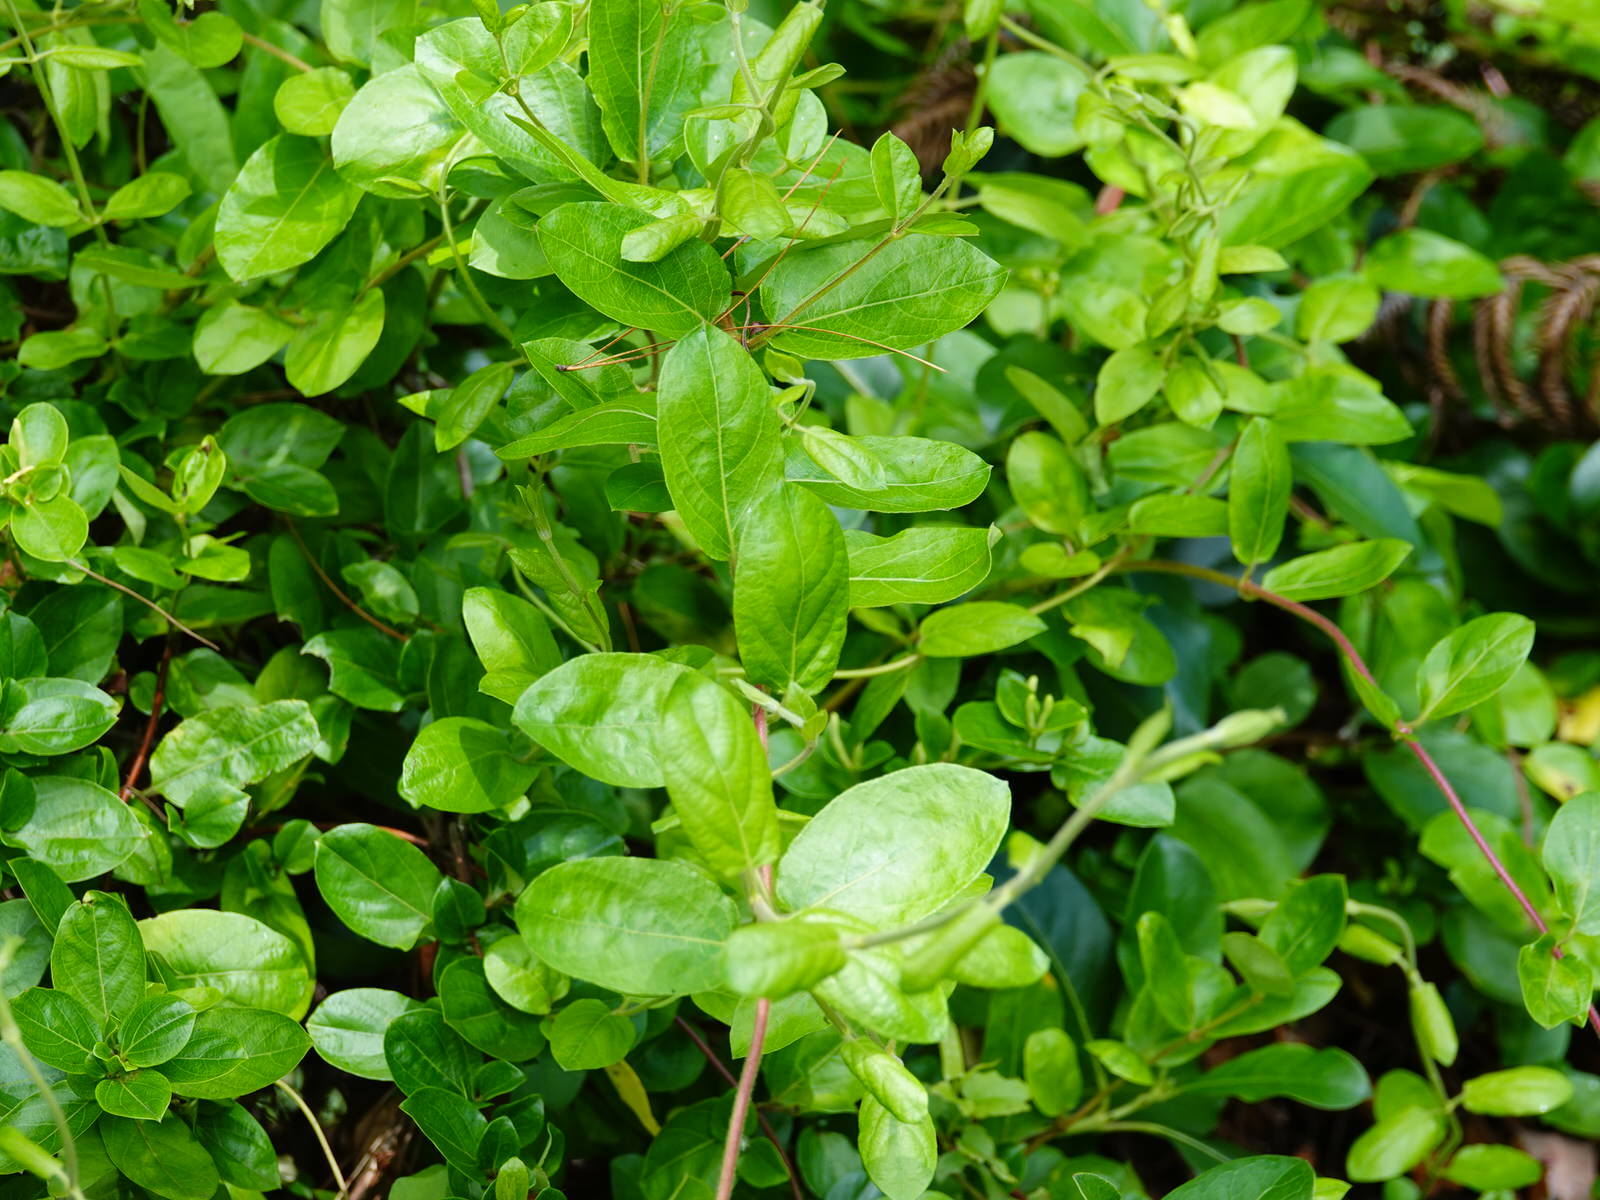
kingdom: Plantae
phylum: Tracheophyta
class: Magnoliopsida
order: Dipsacales
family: Caprifoliaceae
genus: Lonicera
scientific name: Lonicera japonica
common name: Japanese honeysuckle
